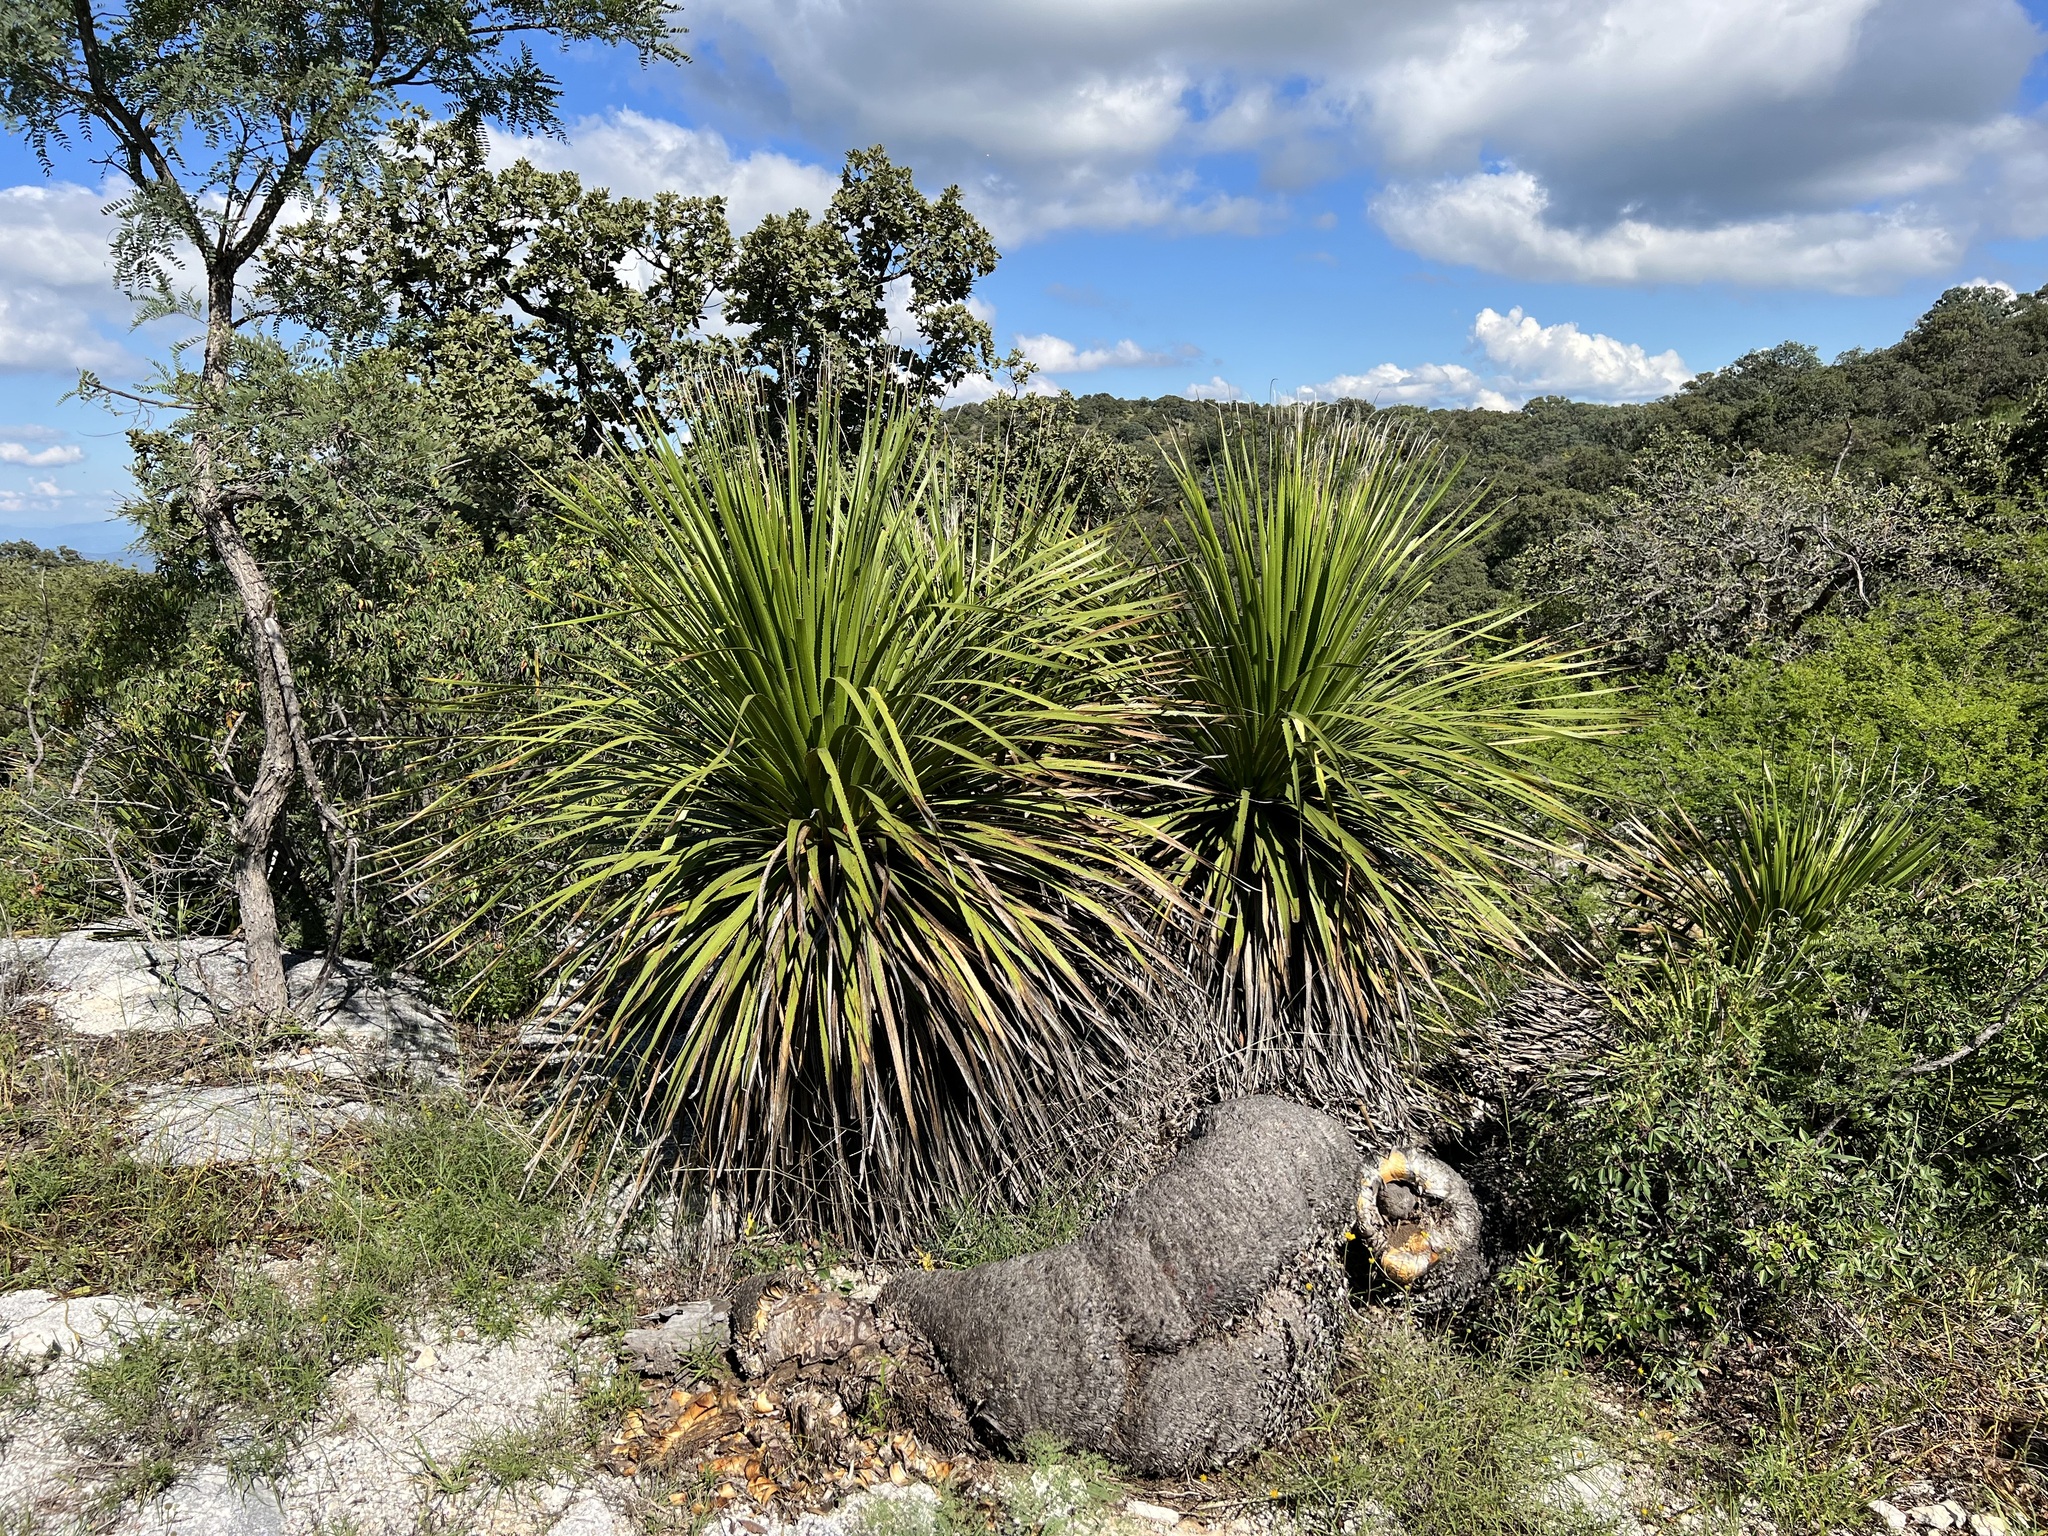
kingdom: Plantae
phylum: Tracheophyta
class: Liliopsida
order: Asparagales
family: Asparagaceae
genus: Dasylirion
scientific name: Dasylirion gentryi
